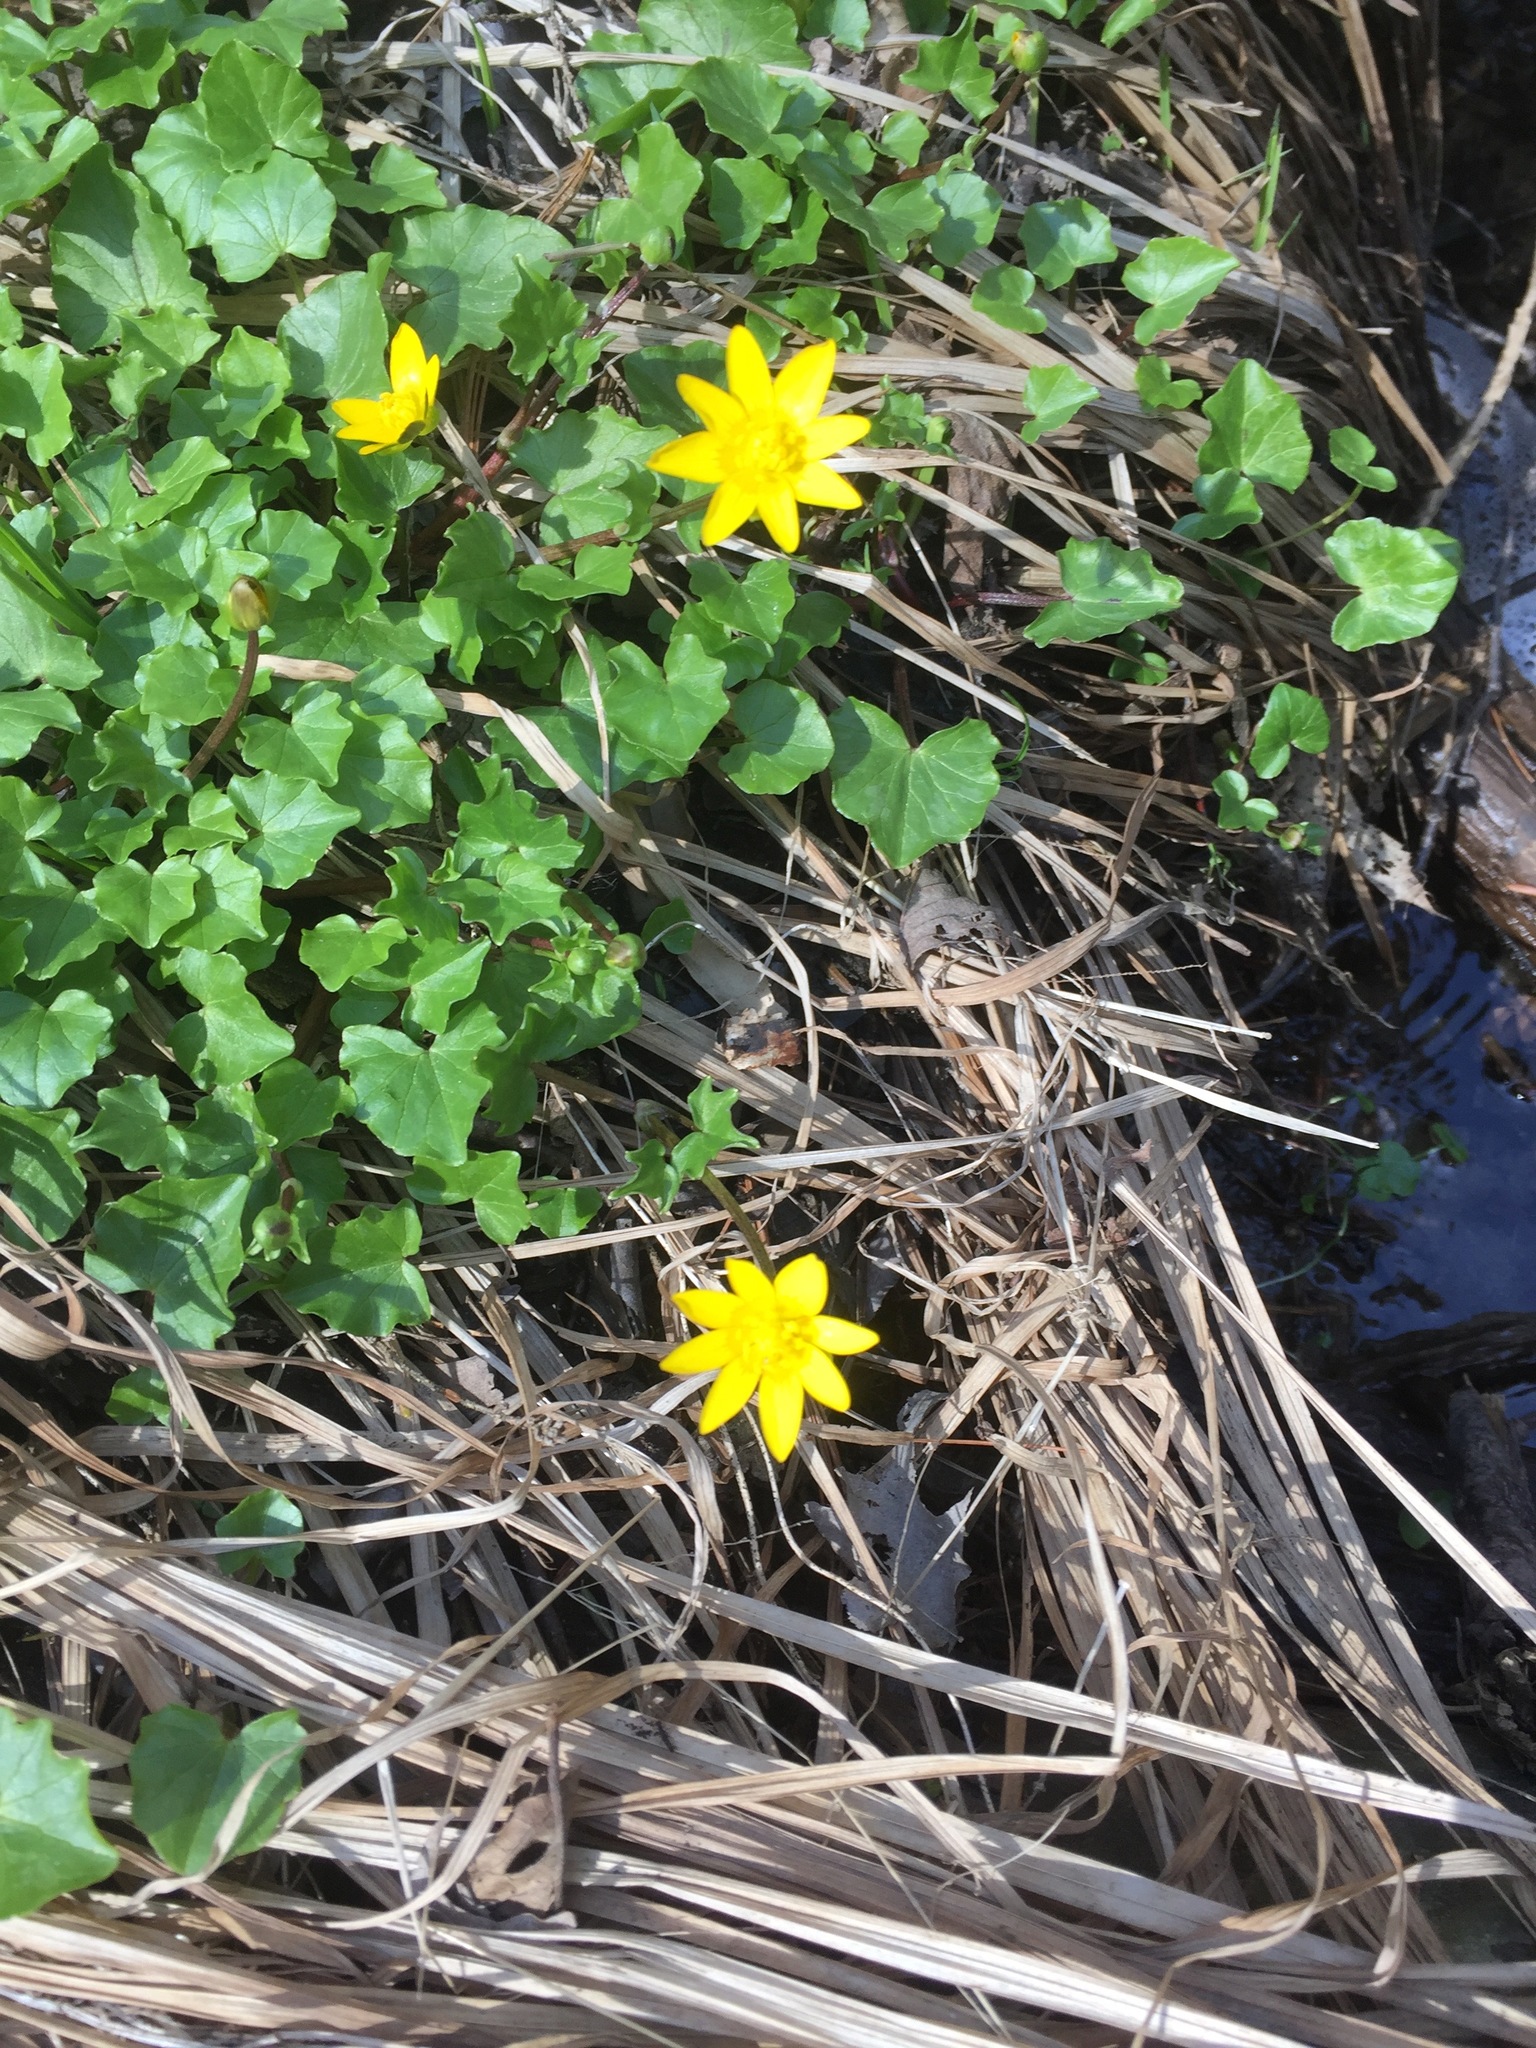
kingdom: Plantae
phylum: Tracheophyta
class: Magnoliopsida
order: Ranunculales
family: Ranunculaceae
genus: Ficaria
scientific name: Ficaria verna
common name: Lesser celandine
